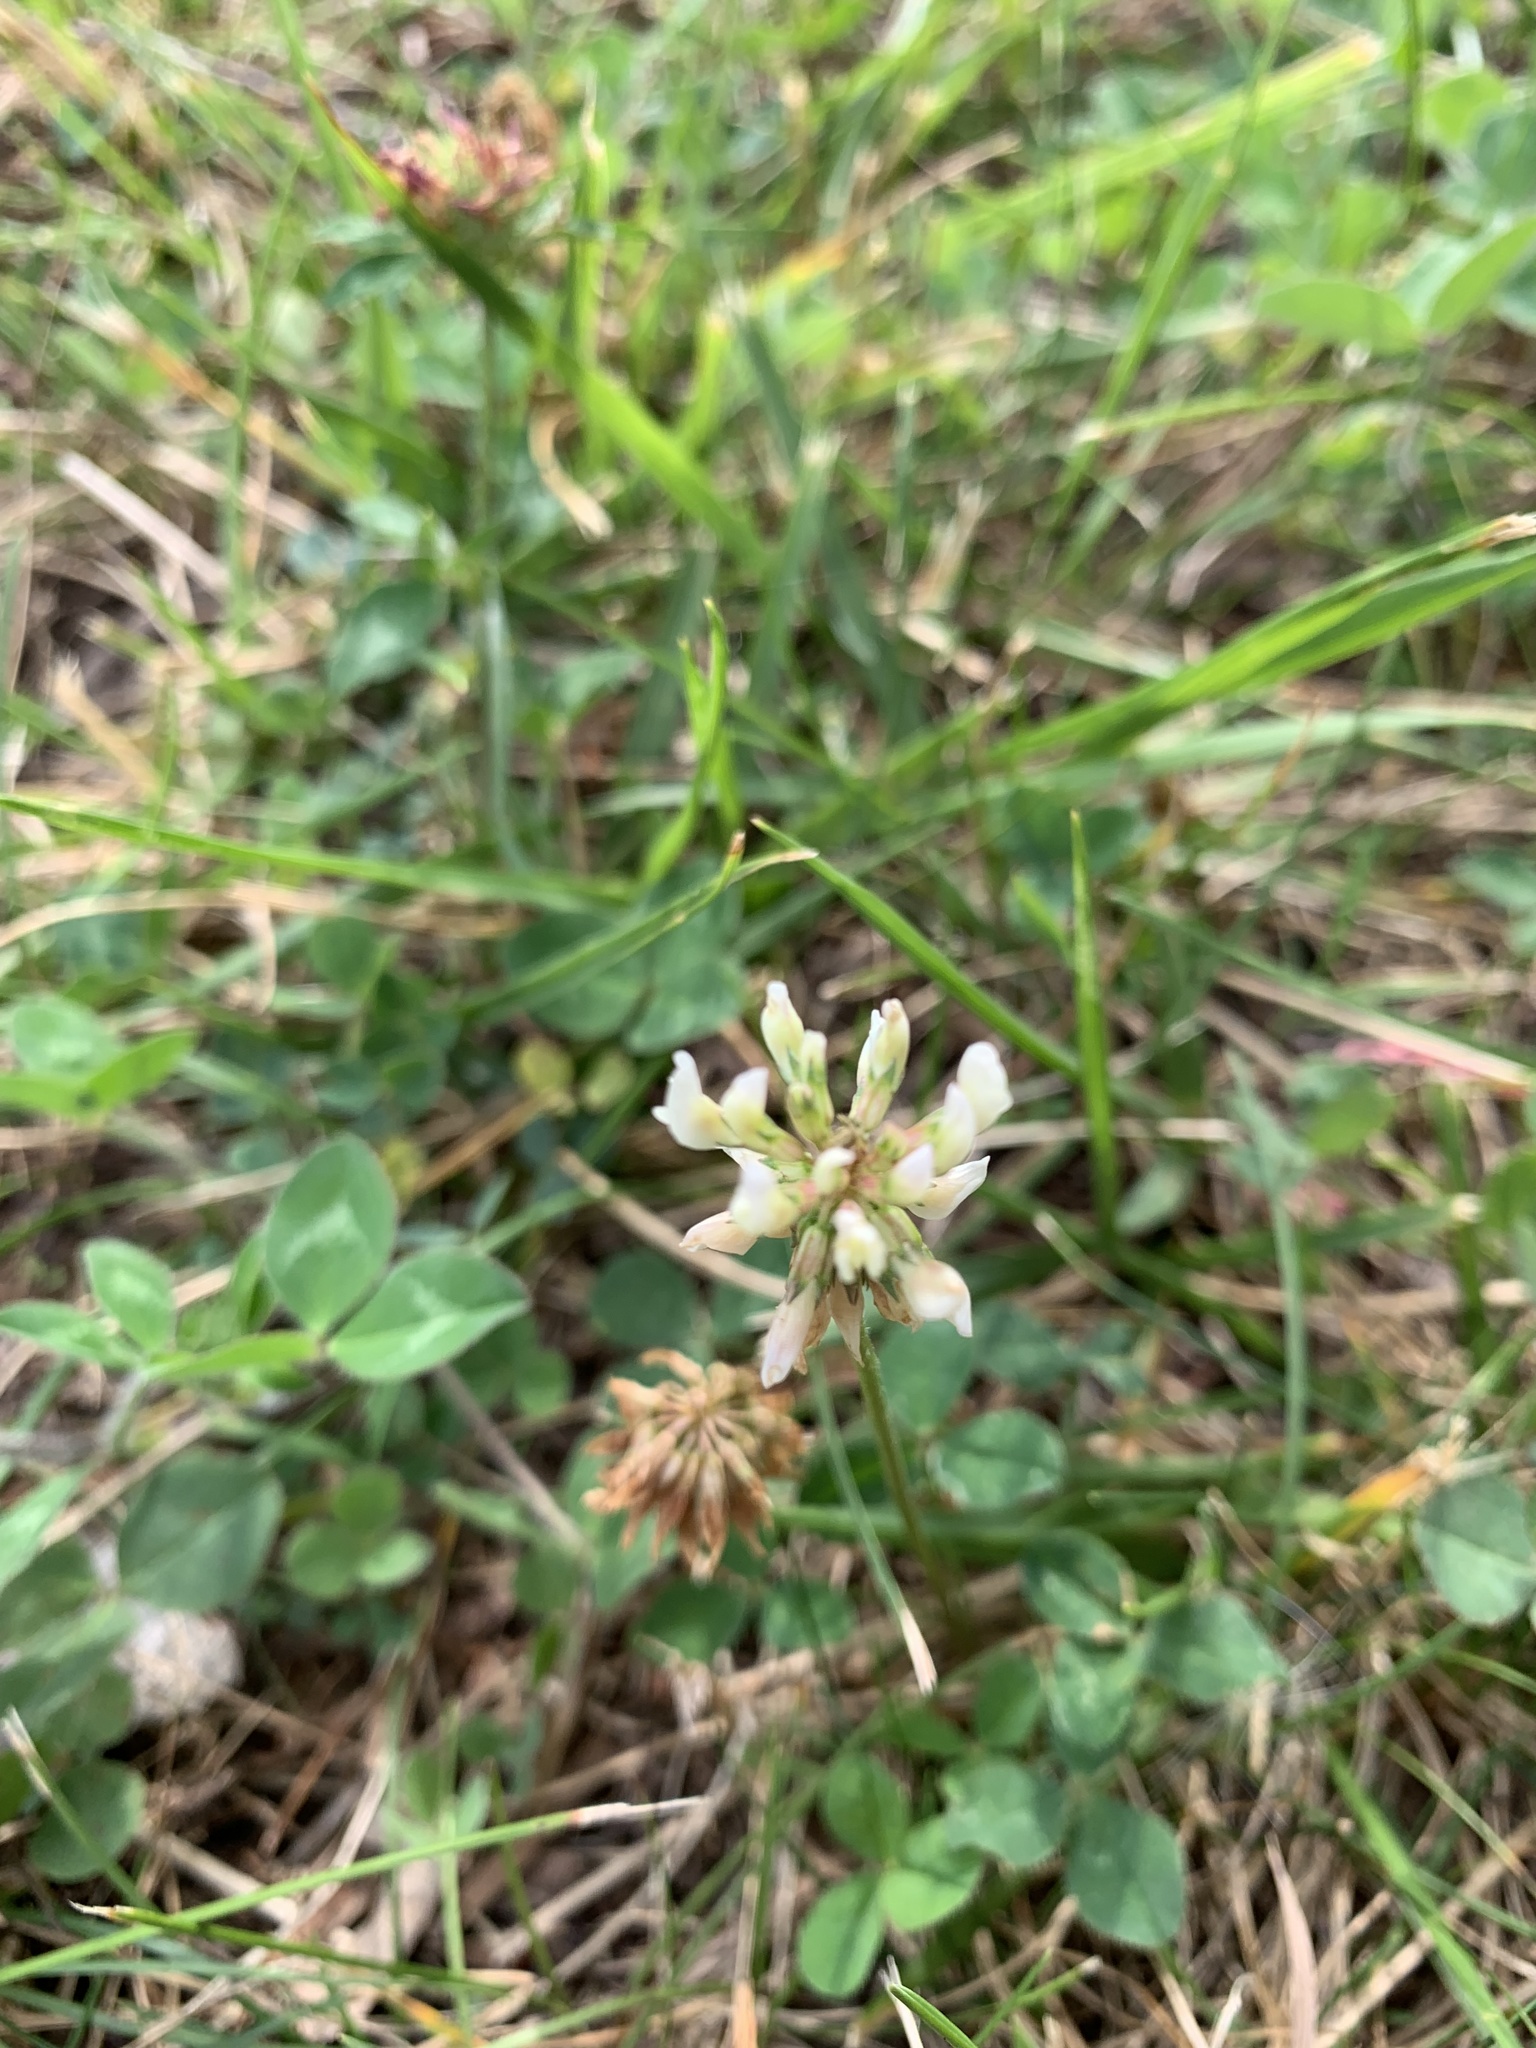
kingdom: Plantae
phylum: Tracheophyta
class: Magnoliopsida
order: Fabales
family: Fabaceae
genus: Trifolium
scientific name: Trifolium repens
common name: White clover
